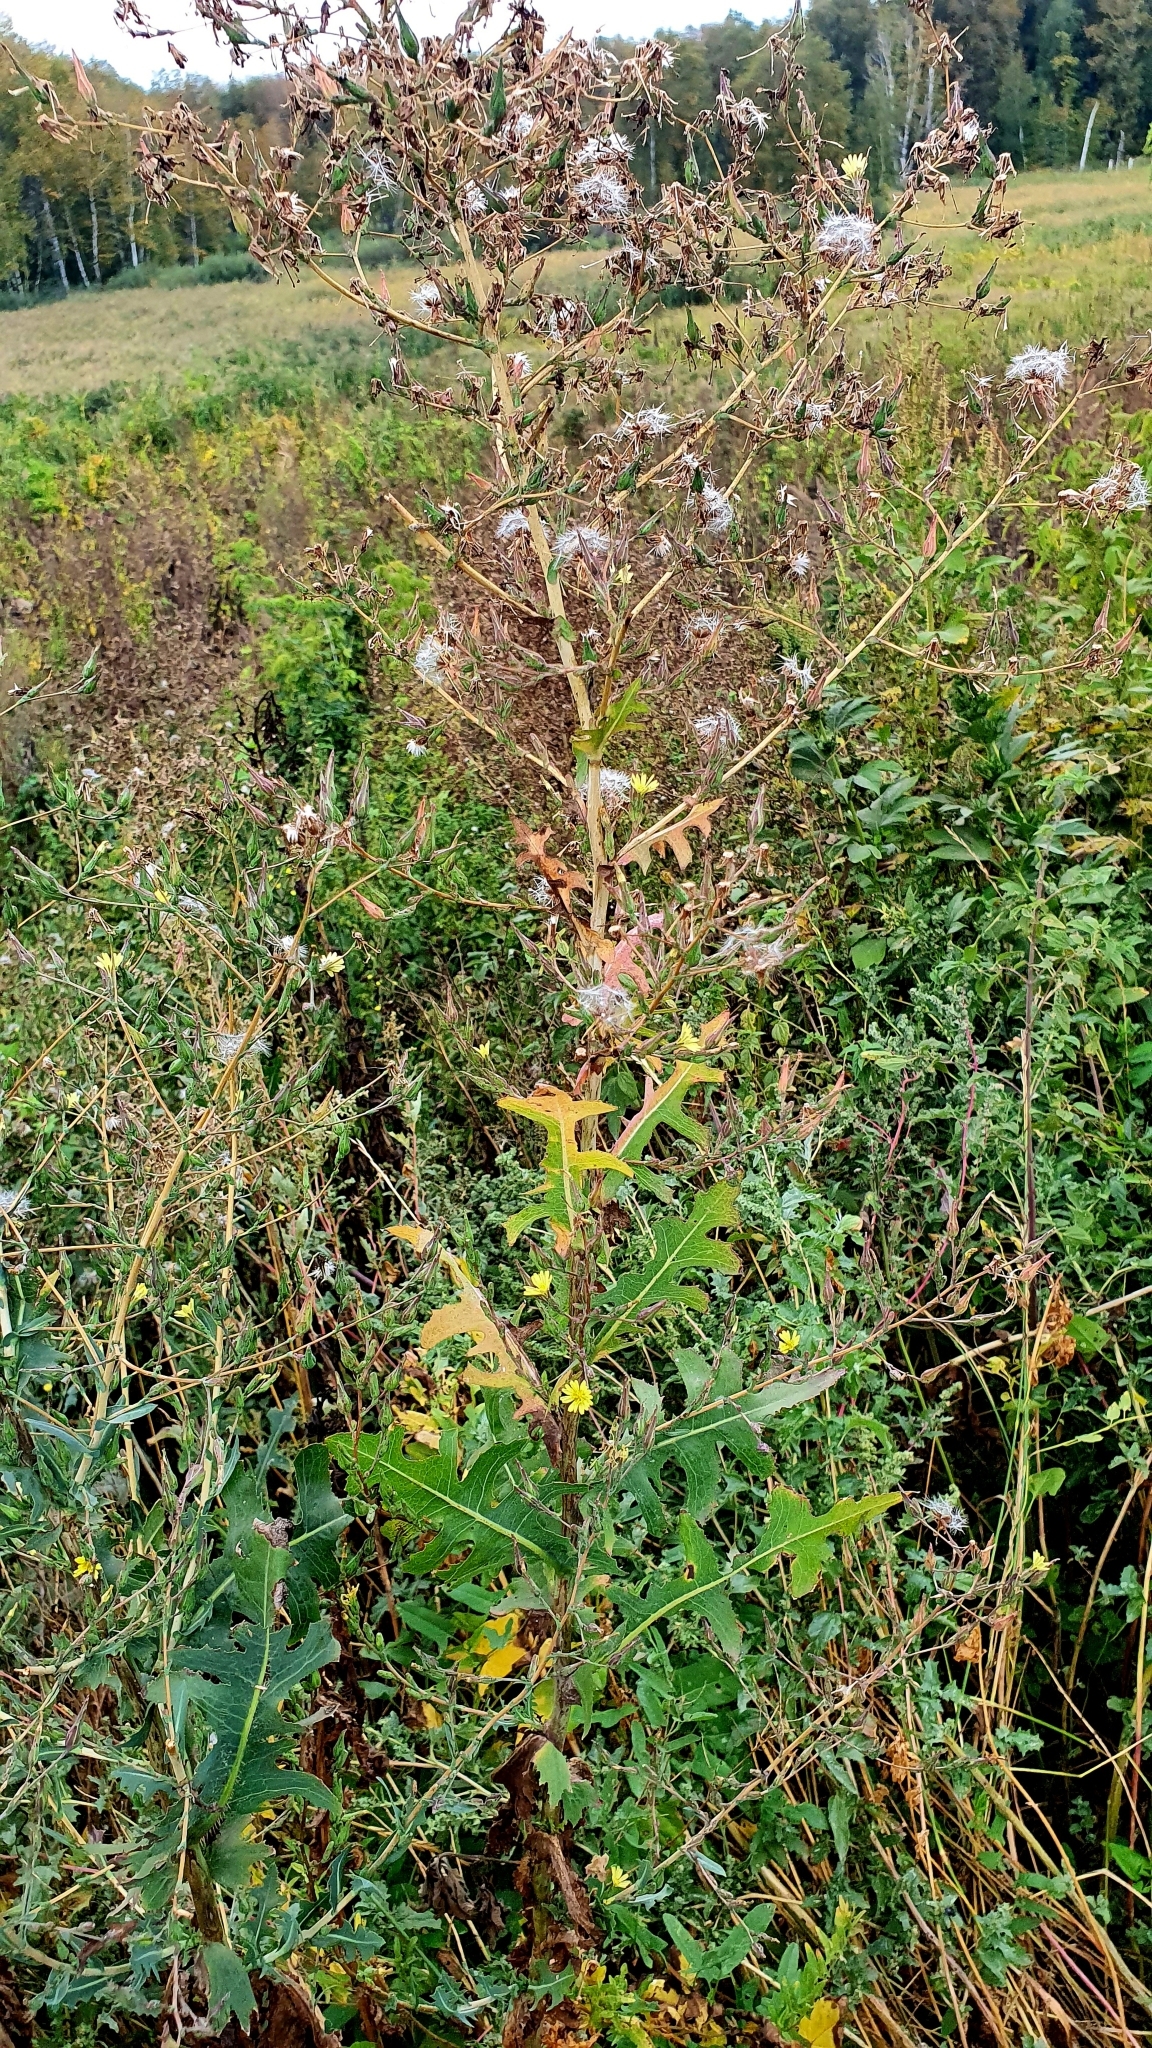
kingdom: Plantae
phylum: Tracheophyta
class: Magnoliopsida
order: Asterales
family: Asteraceae
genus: Lactuca
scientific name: Lactuca serriola
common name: Prickly lettuce
